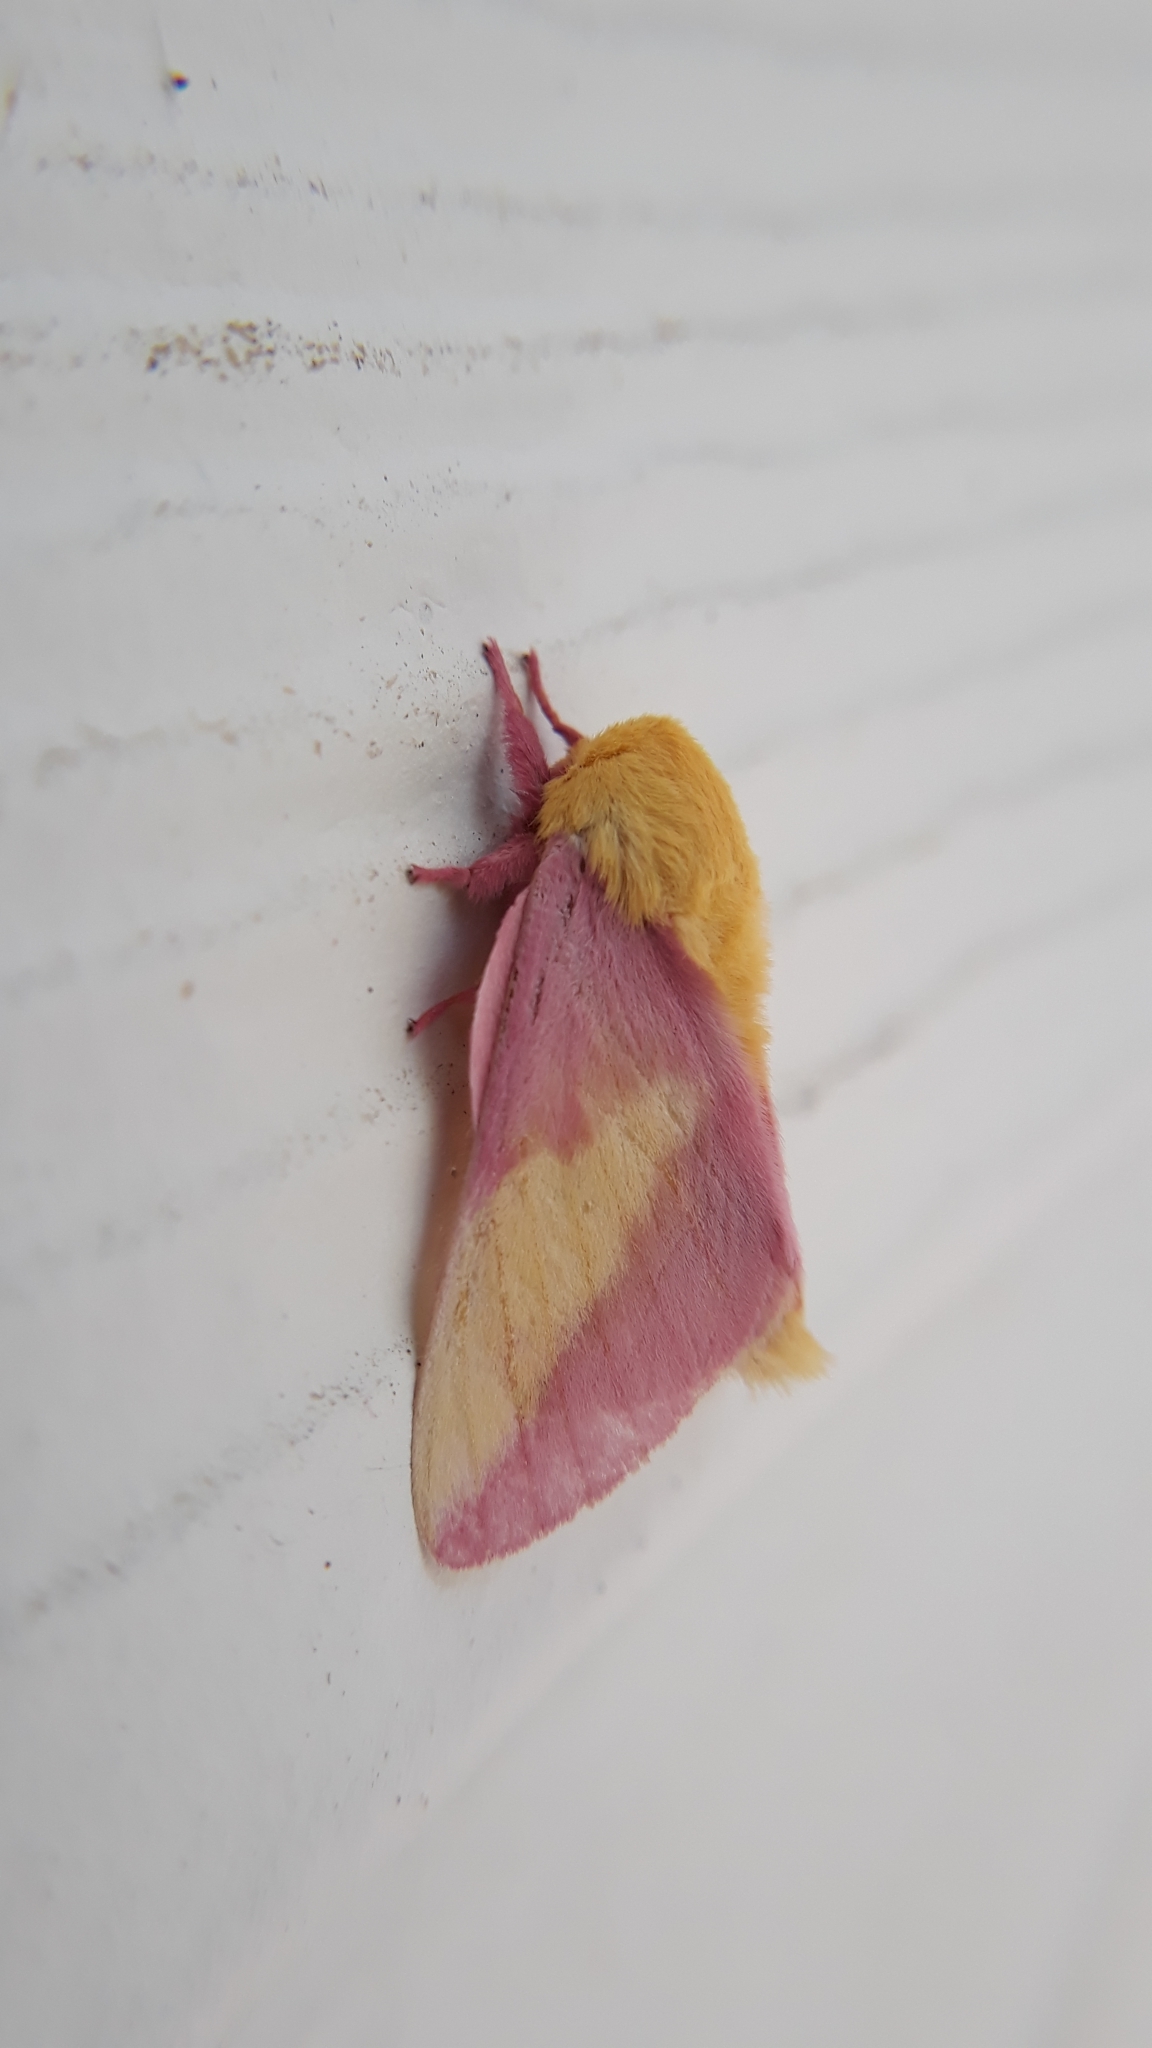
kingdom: Animalia
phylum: Arthropoda
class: Insecta
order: Lepidoptera
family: Saturniidae
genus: Dryocampa
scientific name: Dryocampa rubicunda
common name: Rosy maple moth
